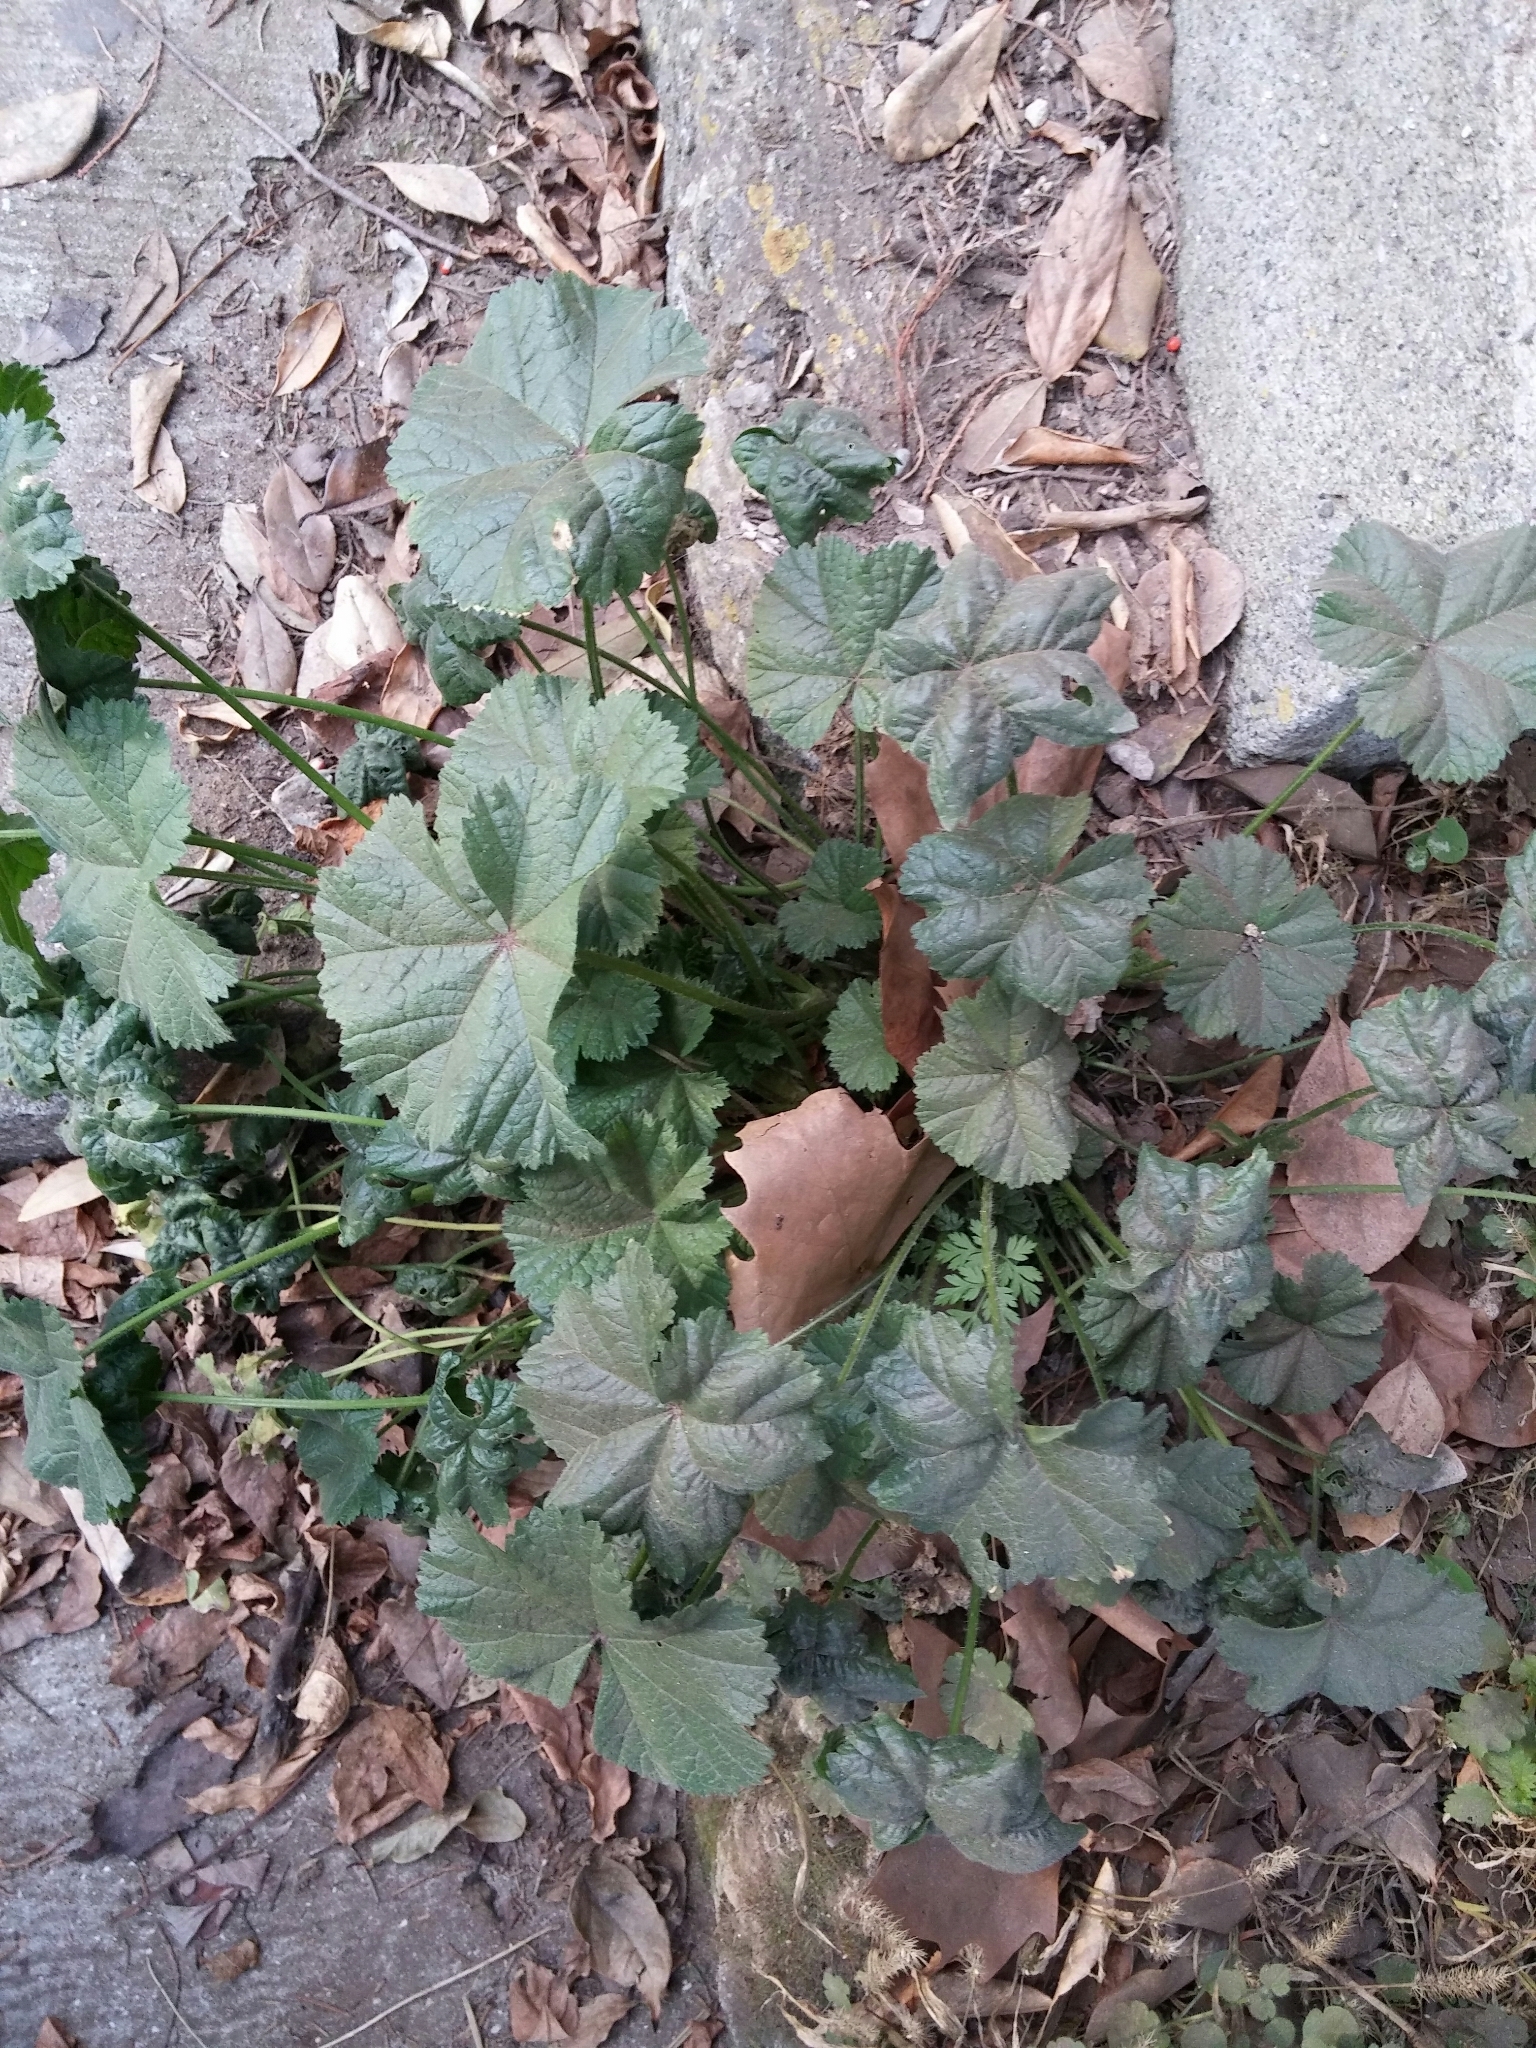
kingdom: Plantae
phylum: Tracheophyta
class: Magnoliopsida
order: Malvales
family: Malvaceae
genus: Malva
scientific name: Malva sylvestris
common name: Common mallow
